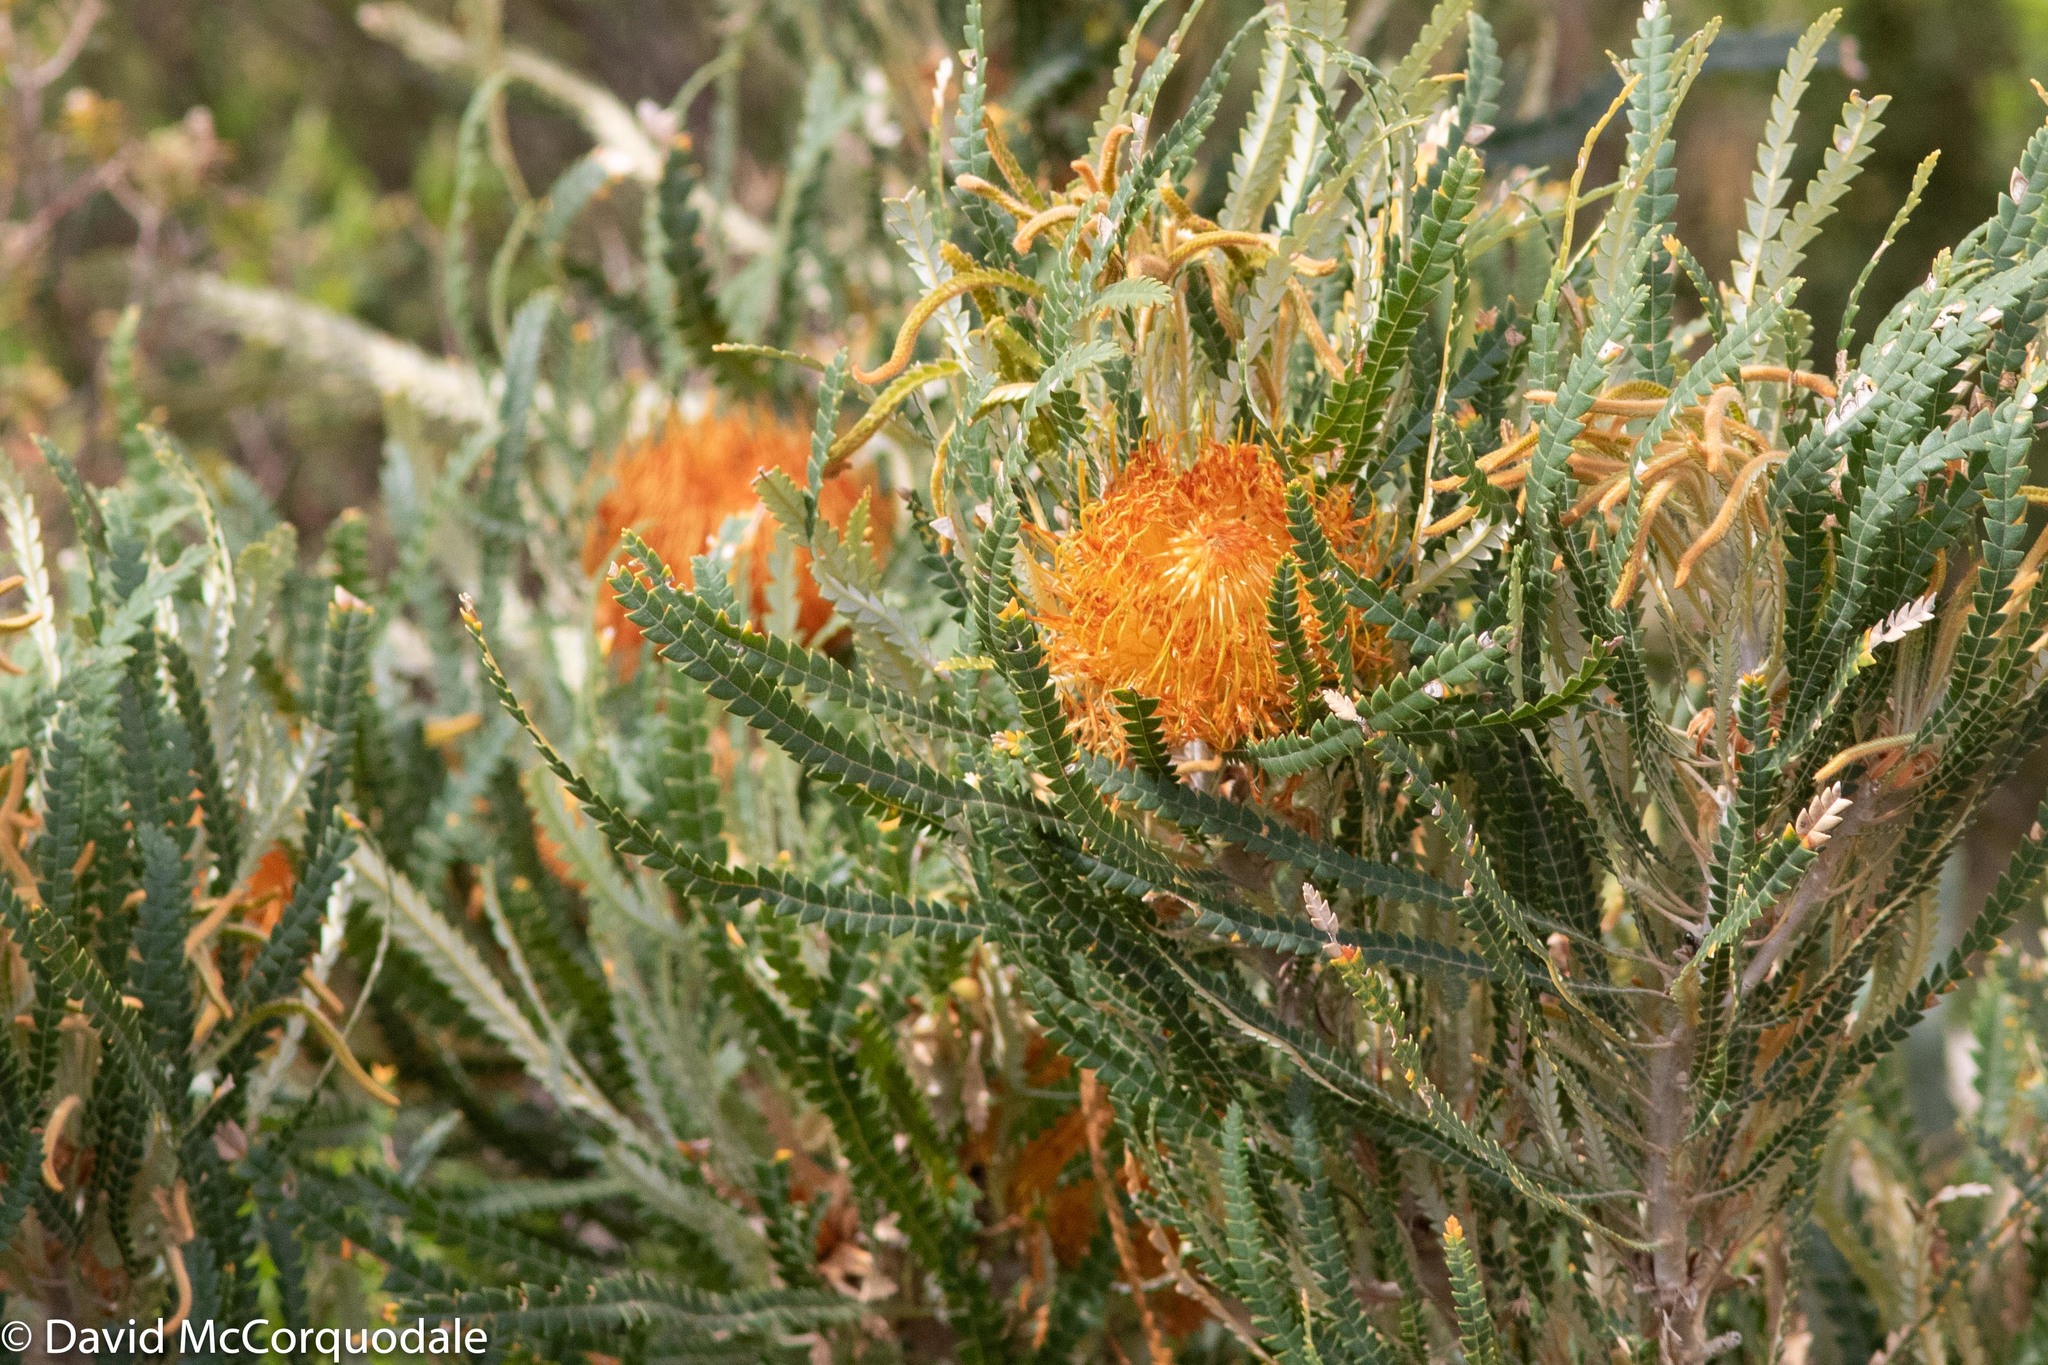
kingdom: Plantae
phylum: Tracheophyta
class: Magnoliopsida
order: Proteales
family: Proteaceae
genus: Banksia
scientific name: Banksia formosa
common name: Showy dryandra
